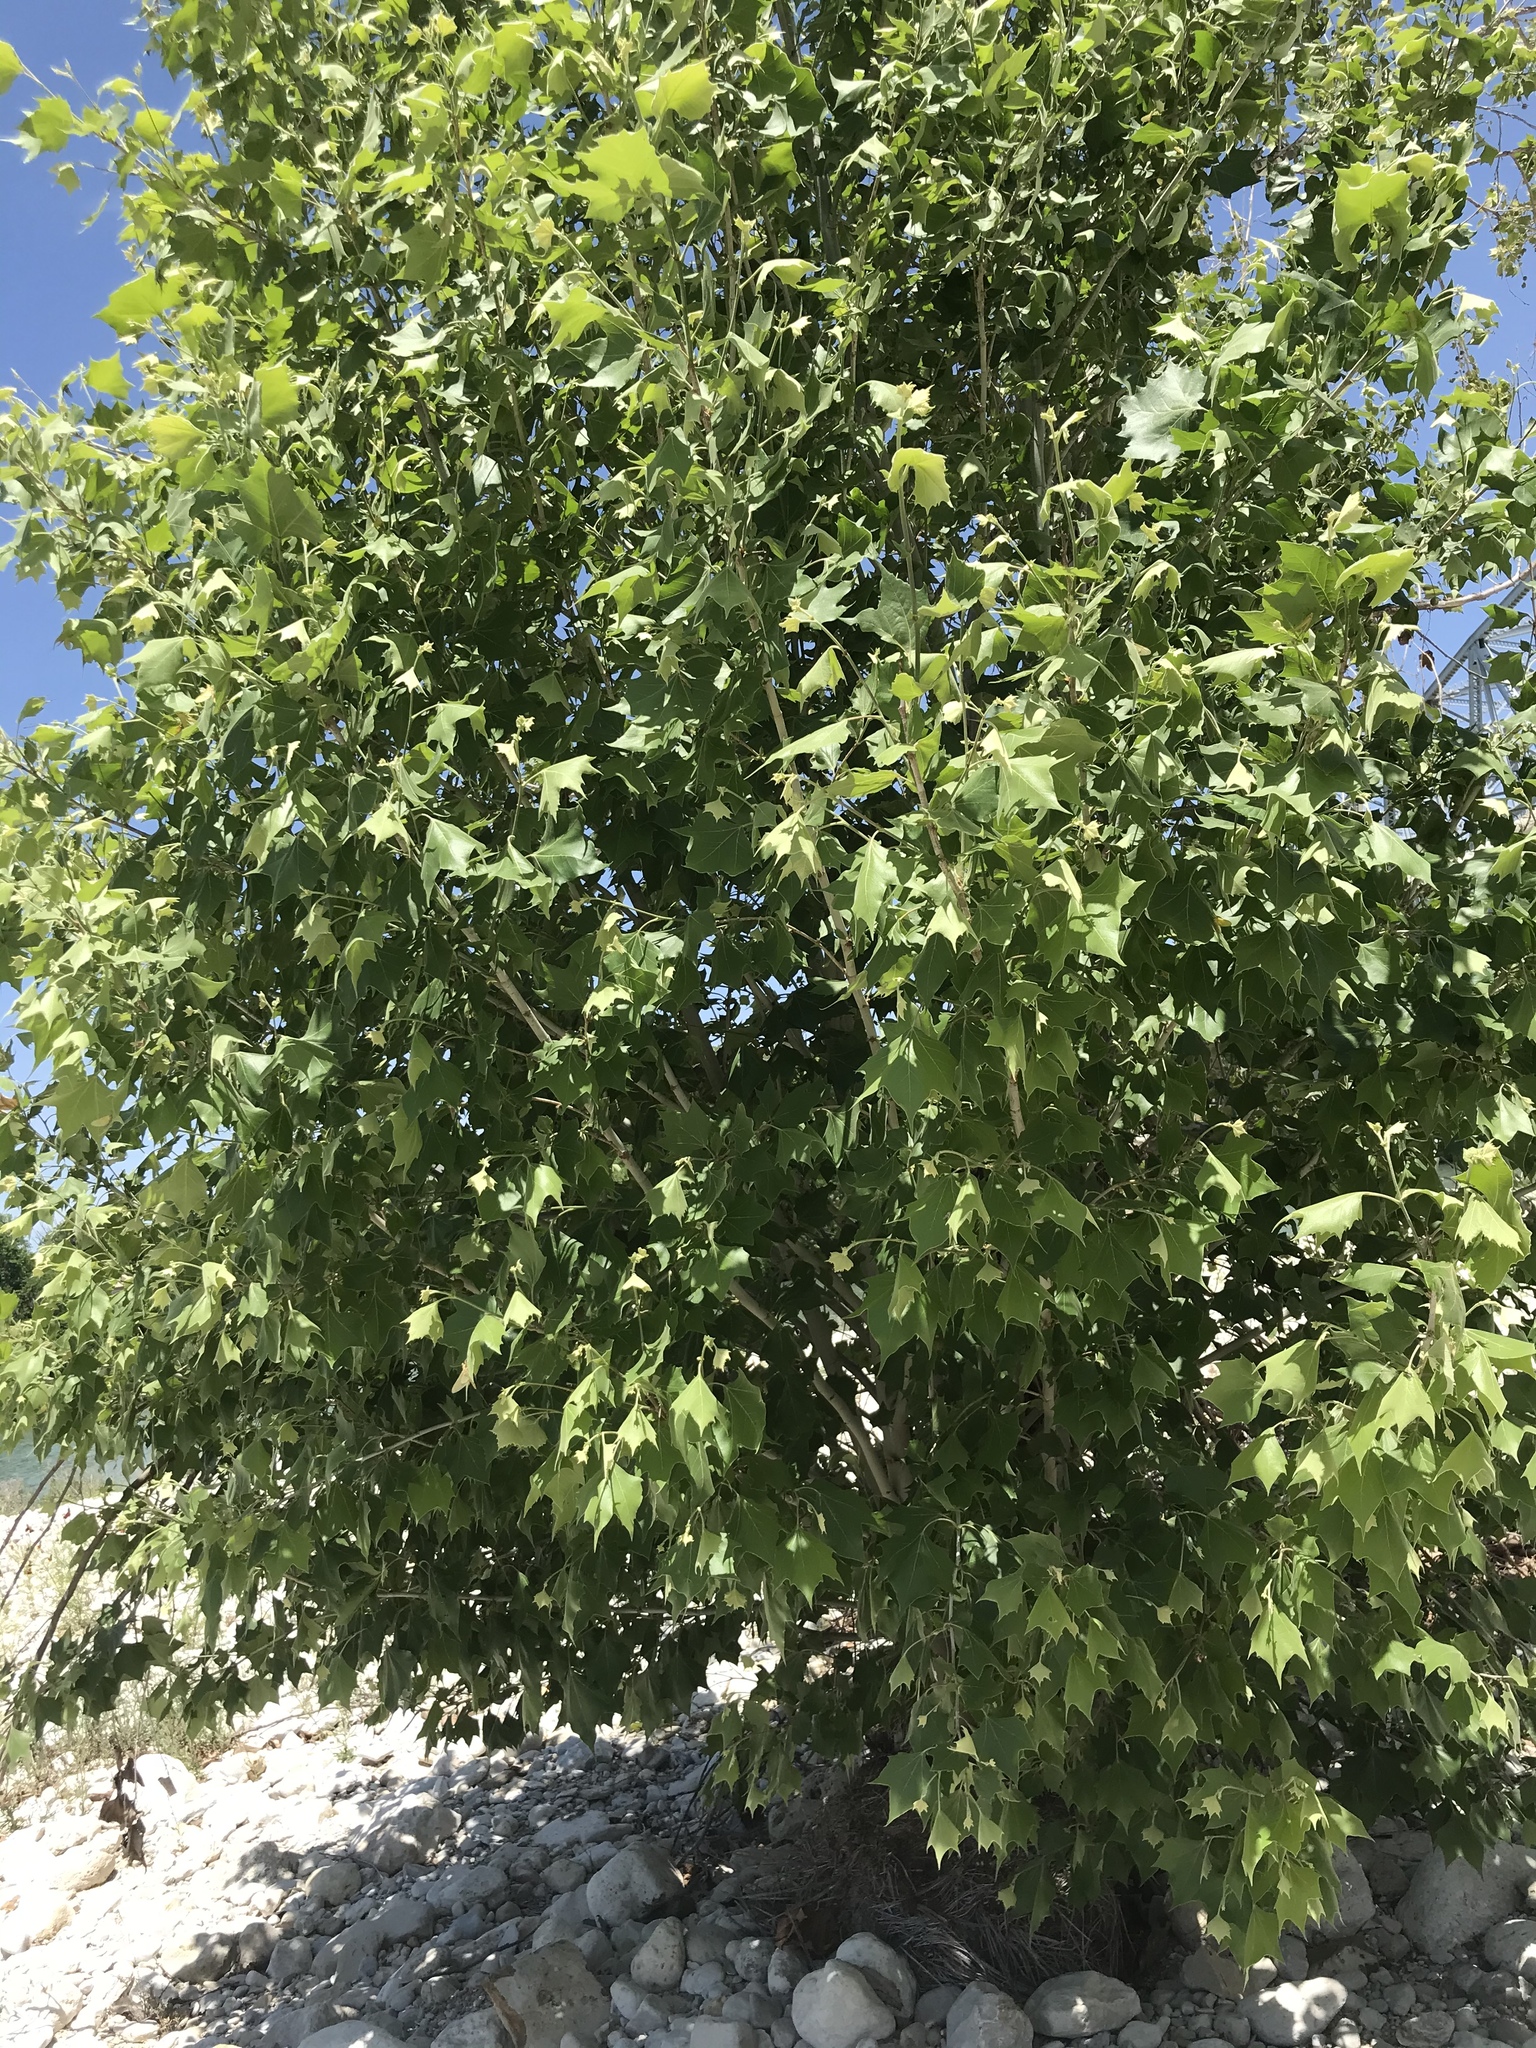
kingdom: Plantae
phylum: Tracheophyta
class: Magnoliopsida
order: Proteales
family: Platanaceae
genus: Platanus
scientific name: Platanus occidentalis
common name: American sycamore
